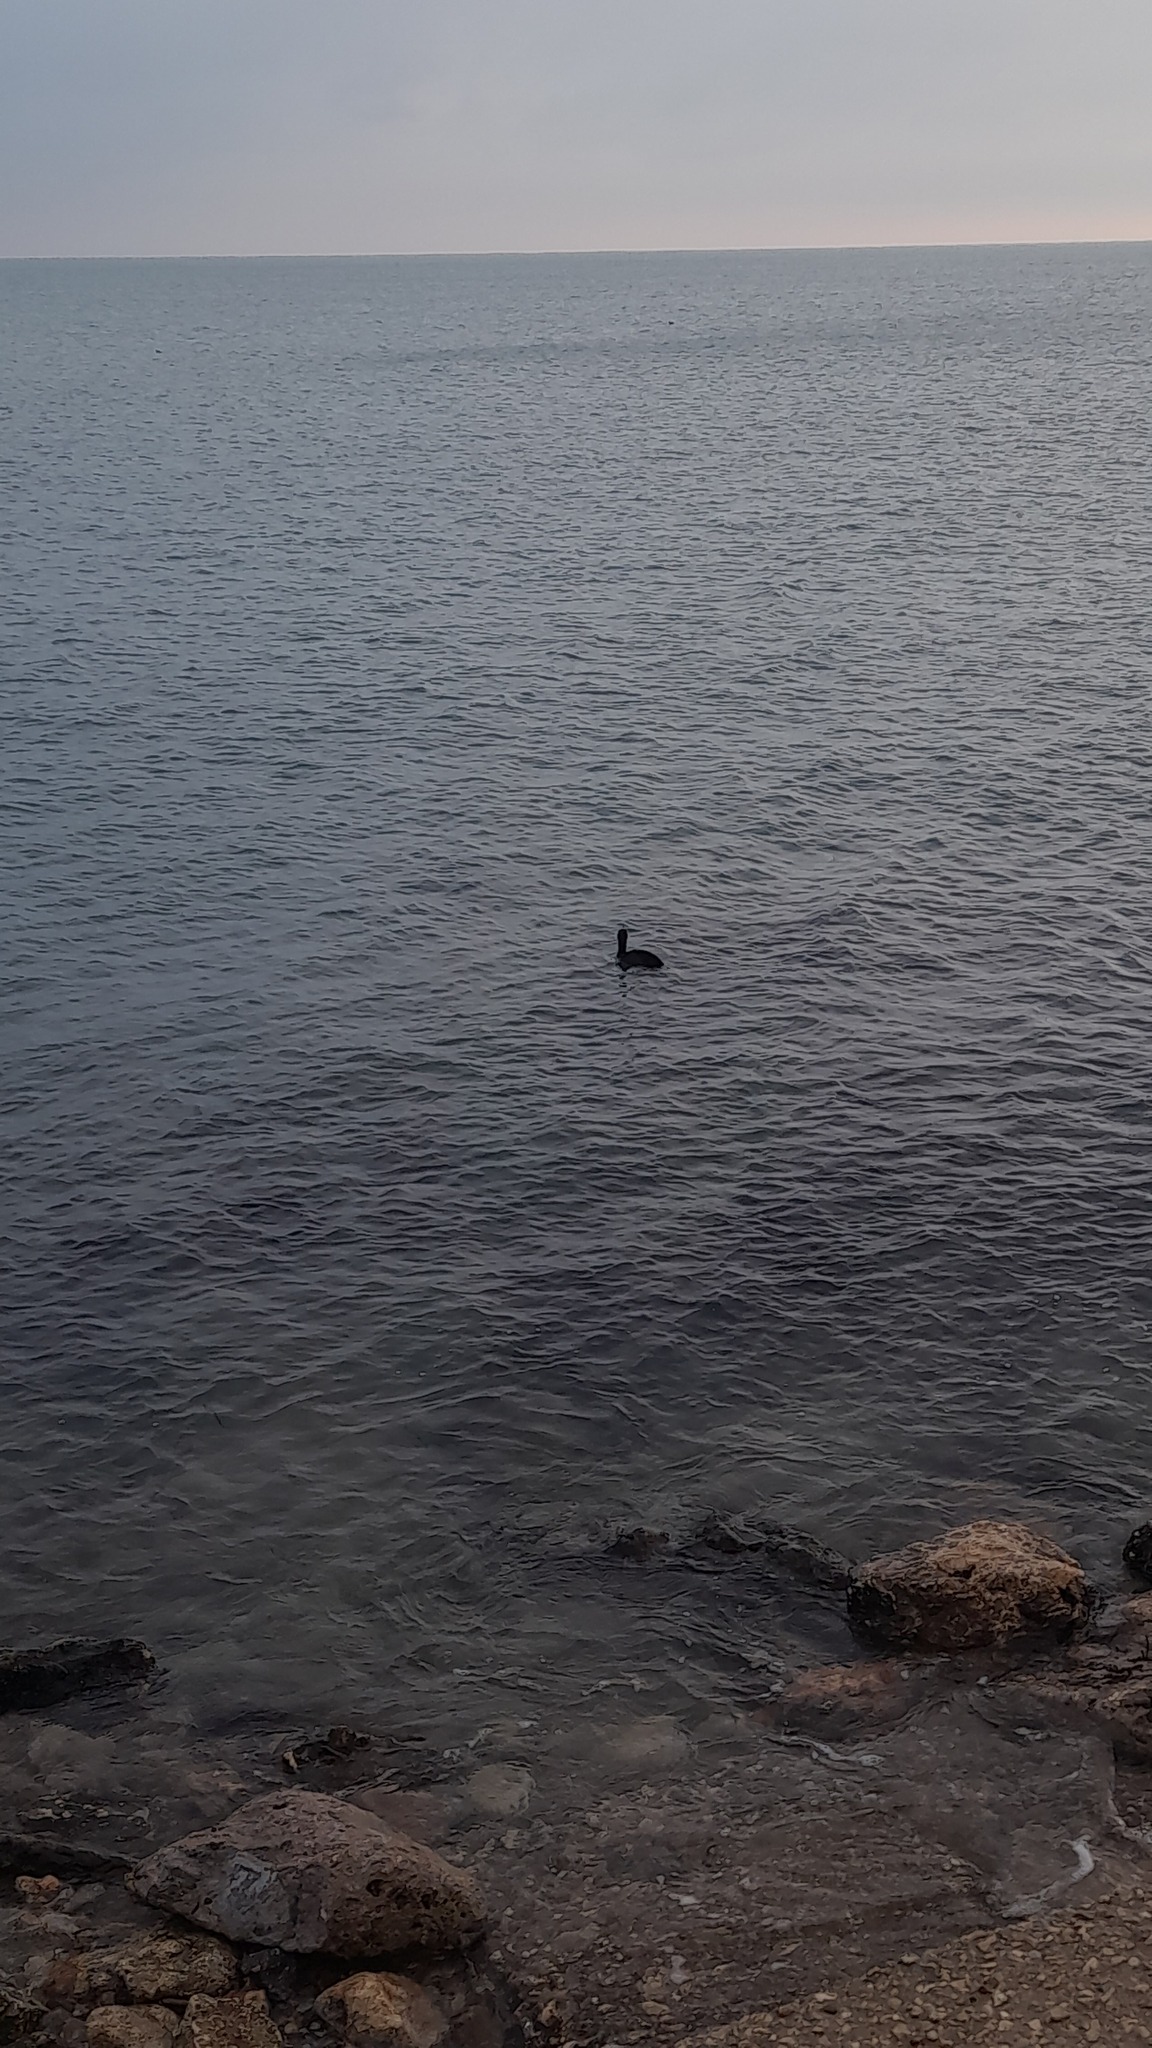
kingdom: Animalia
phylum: Chordata
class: Aves
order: Suliformes
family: Phalacrocoracidae
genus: Phalacrocorax
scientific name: Phalacrocorax carbo
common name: Great cormorant
